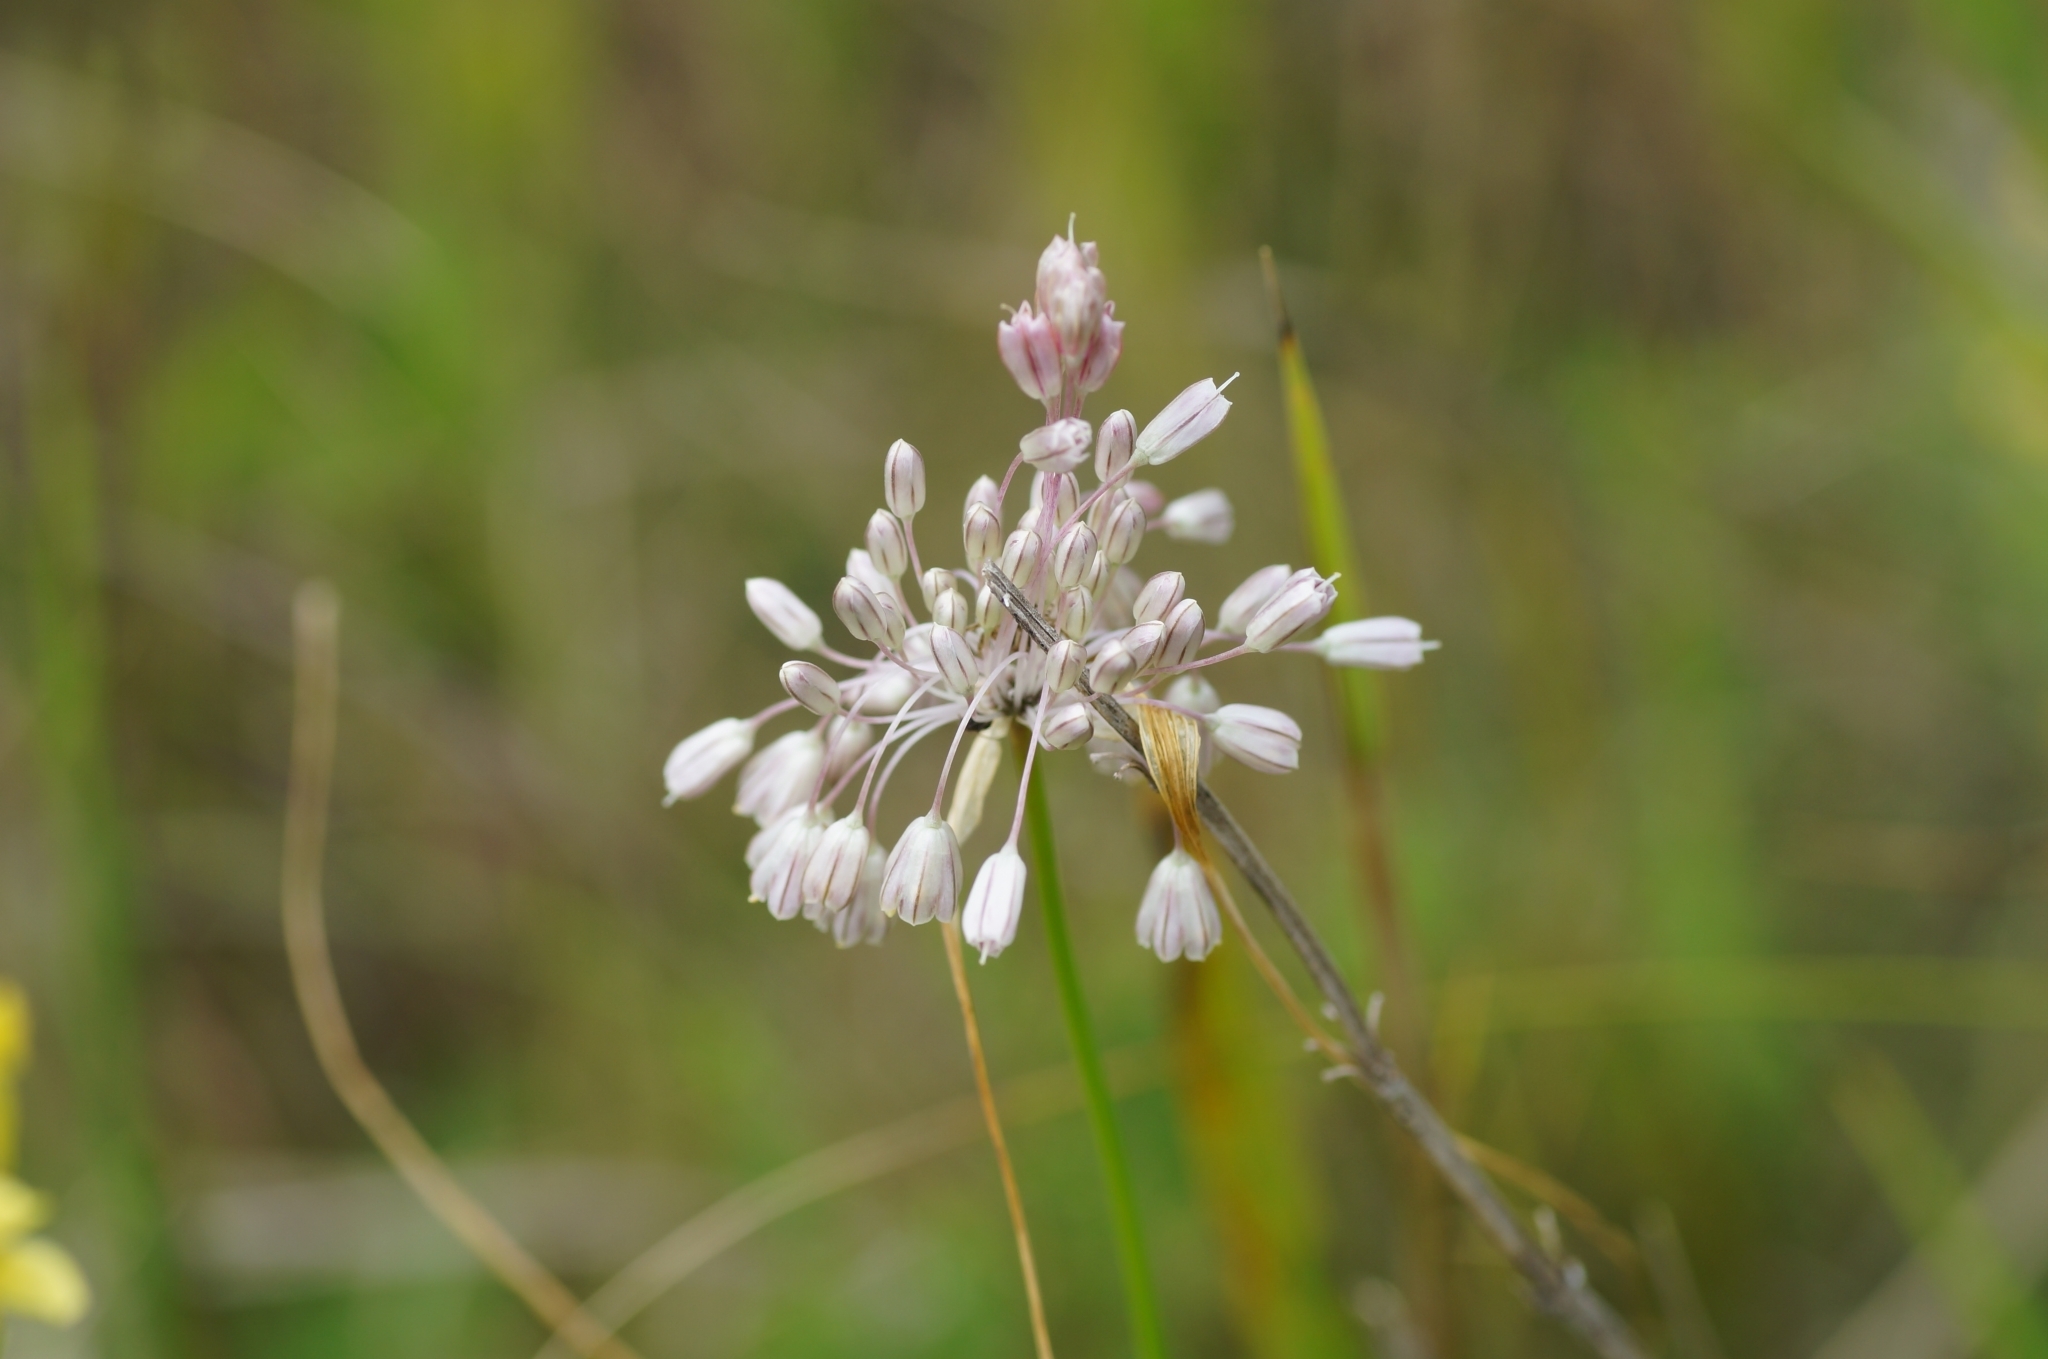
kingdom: Plantae
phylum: Tracheophyta
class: Liliopsida
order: Asparagales
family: Amaryllidaceae
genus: Allium
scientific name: Allium paniculatum
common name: Pale garlic
